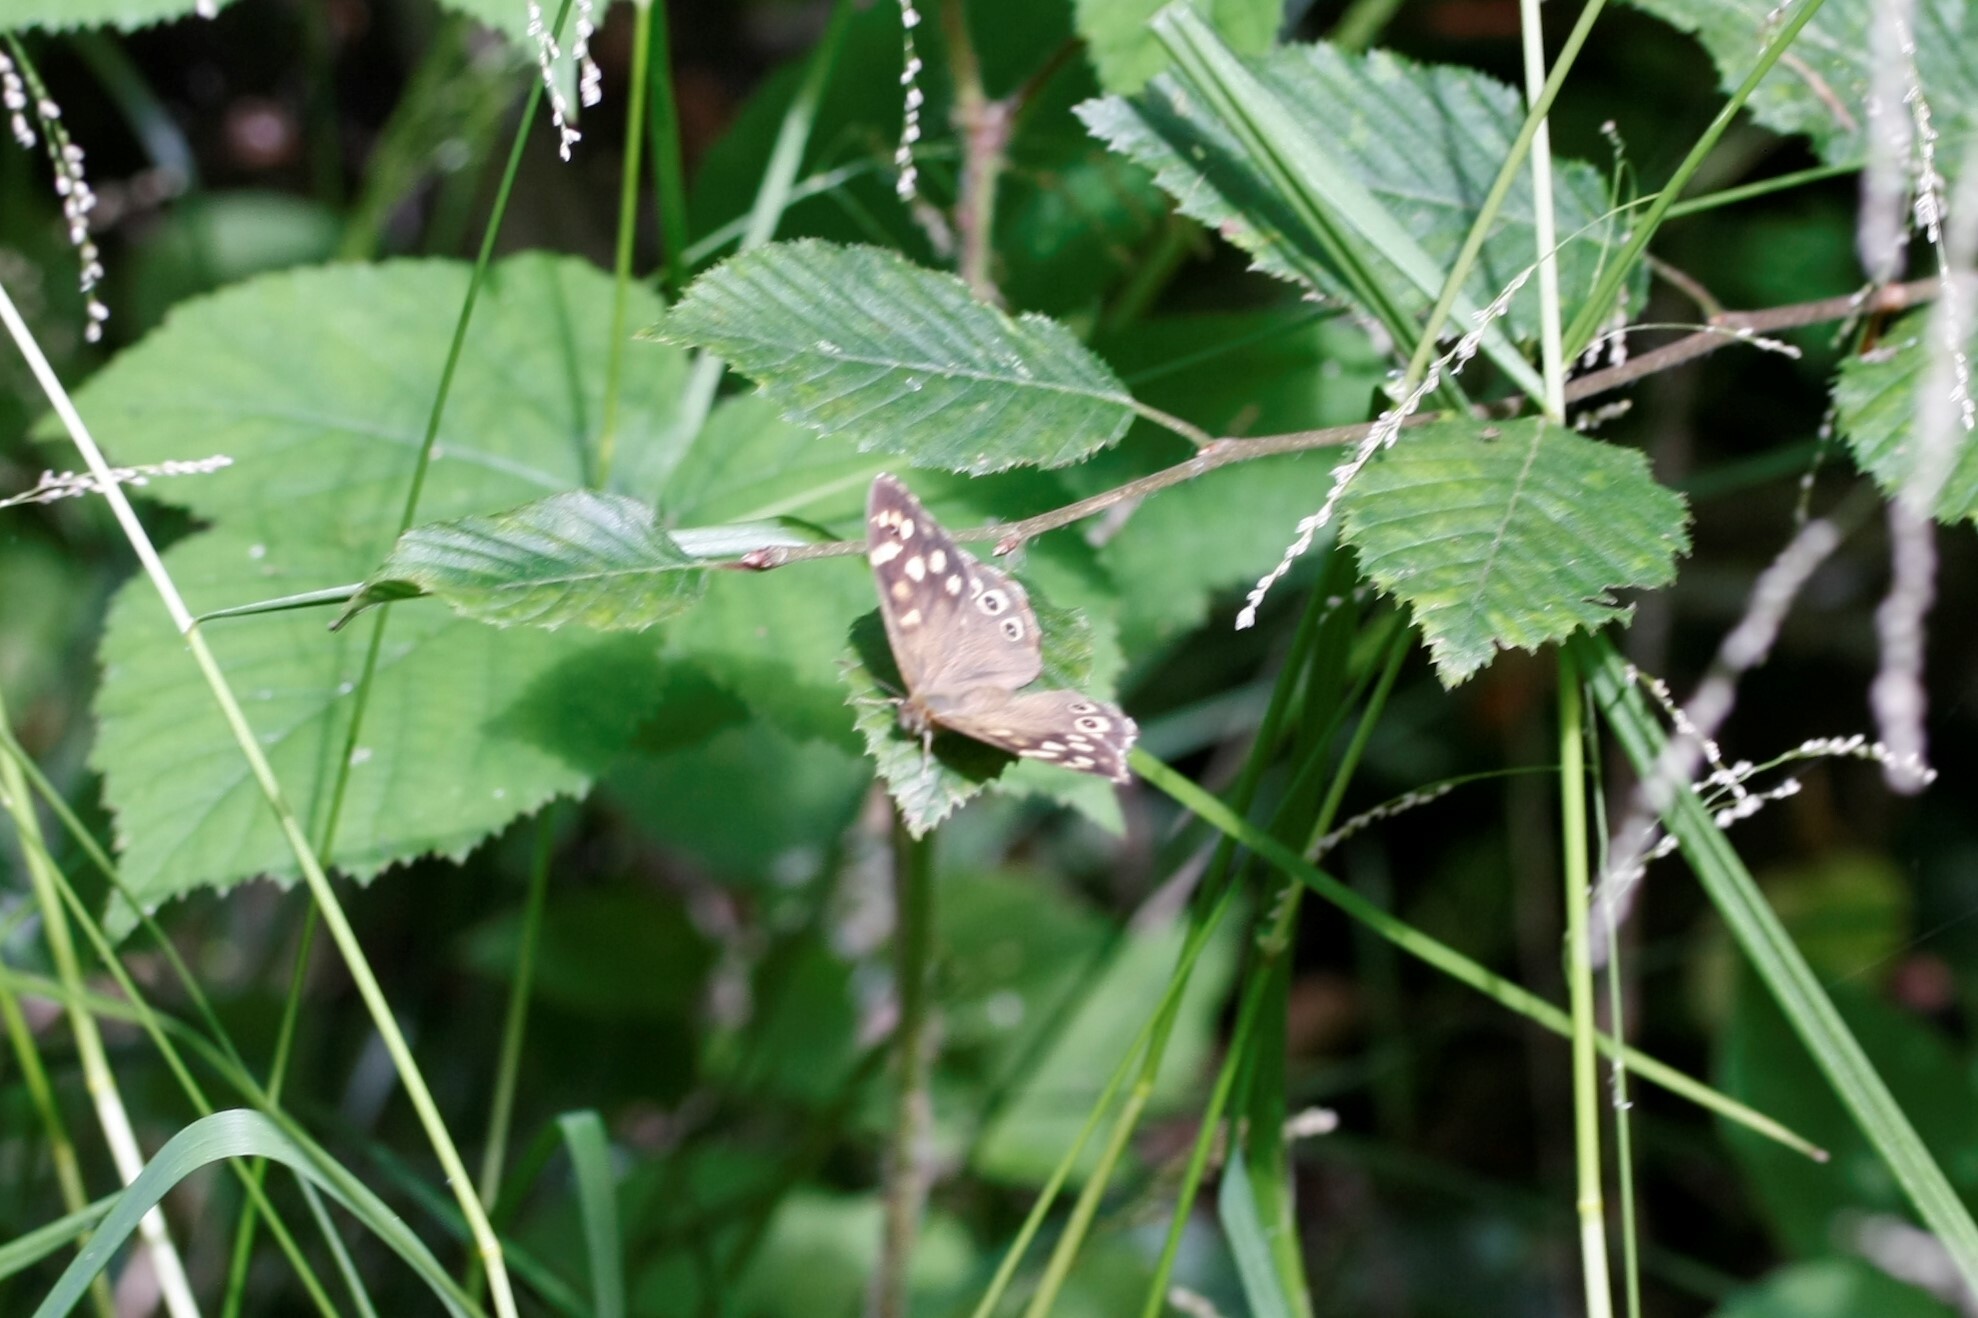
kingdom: Animalia
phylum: Arthropoda
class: Insecta
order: Lepidoptera
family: Nymphalidae
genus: Pararge
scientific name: Pararge aegeria
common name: Speckled wood
